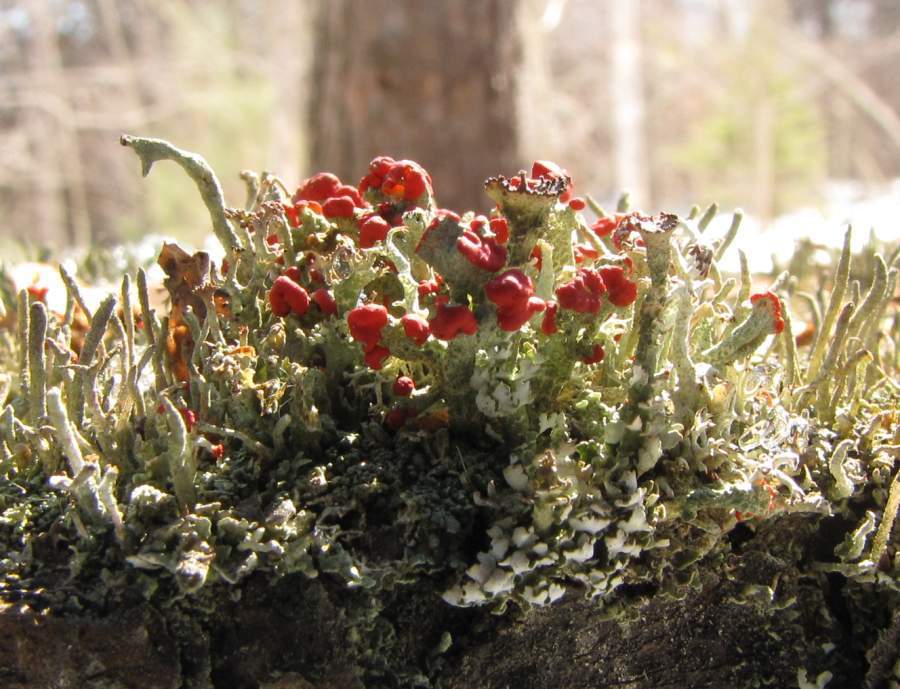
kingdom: Fungi
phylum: Ascomycota
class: Lecanoromycetes
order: Lecanorales
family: Cladoniaceae
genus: Cladonia
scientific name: Cladonia cristatella
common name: British soldier lichen
